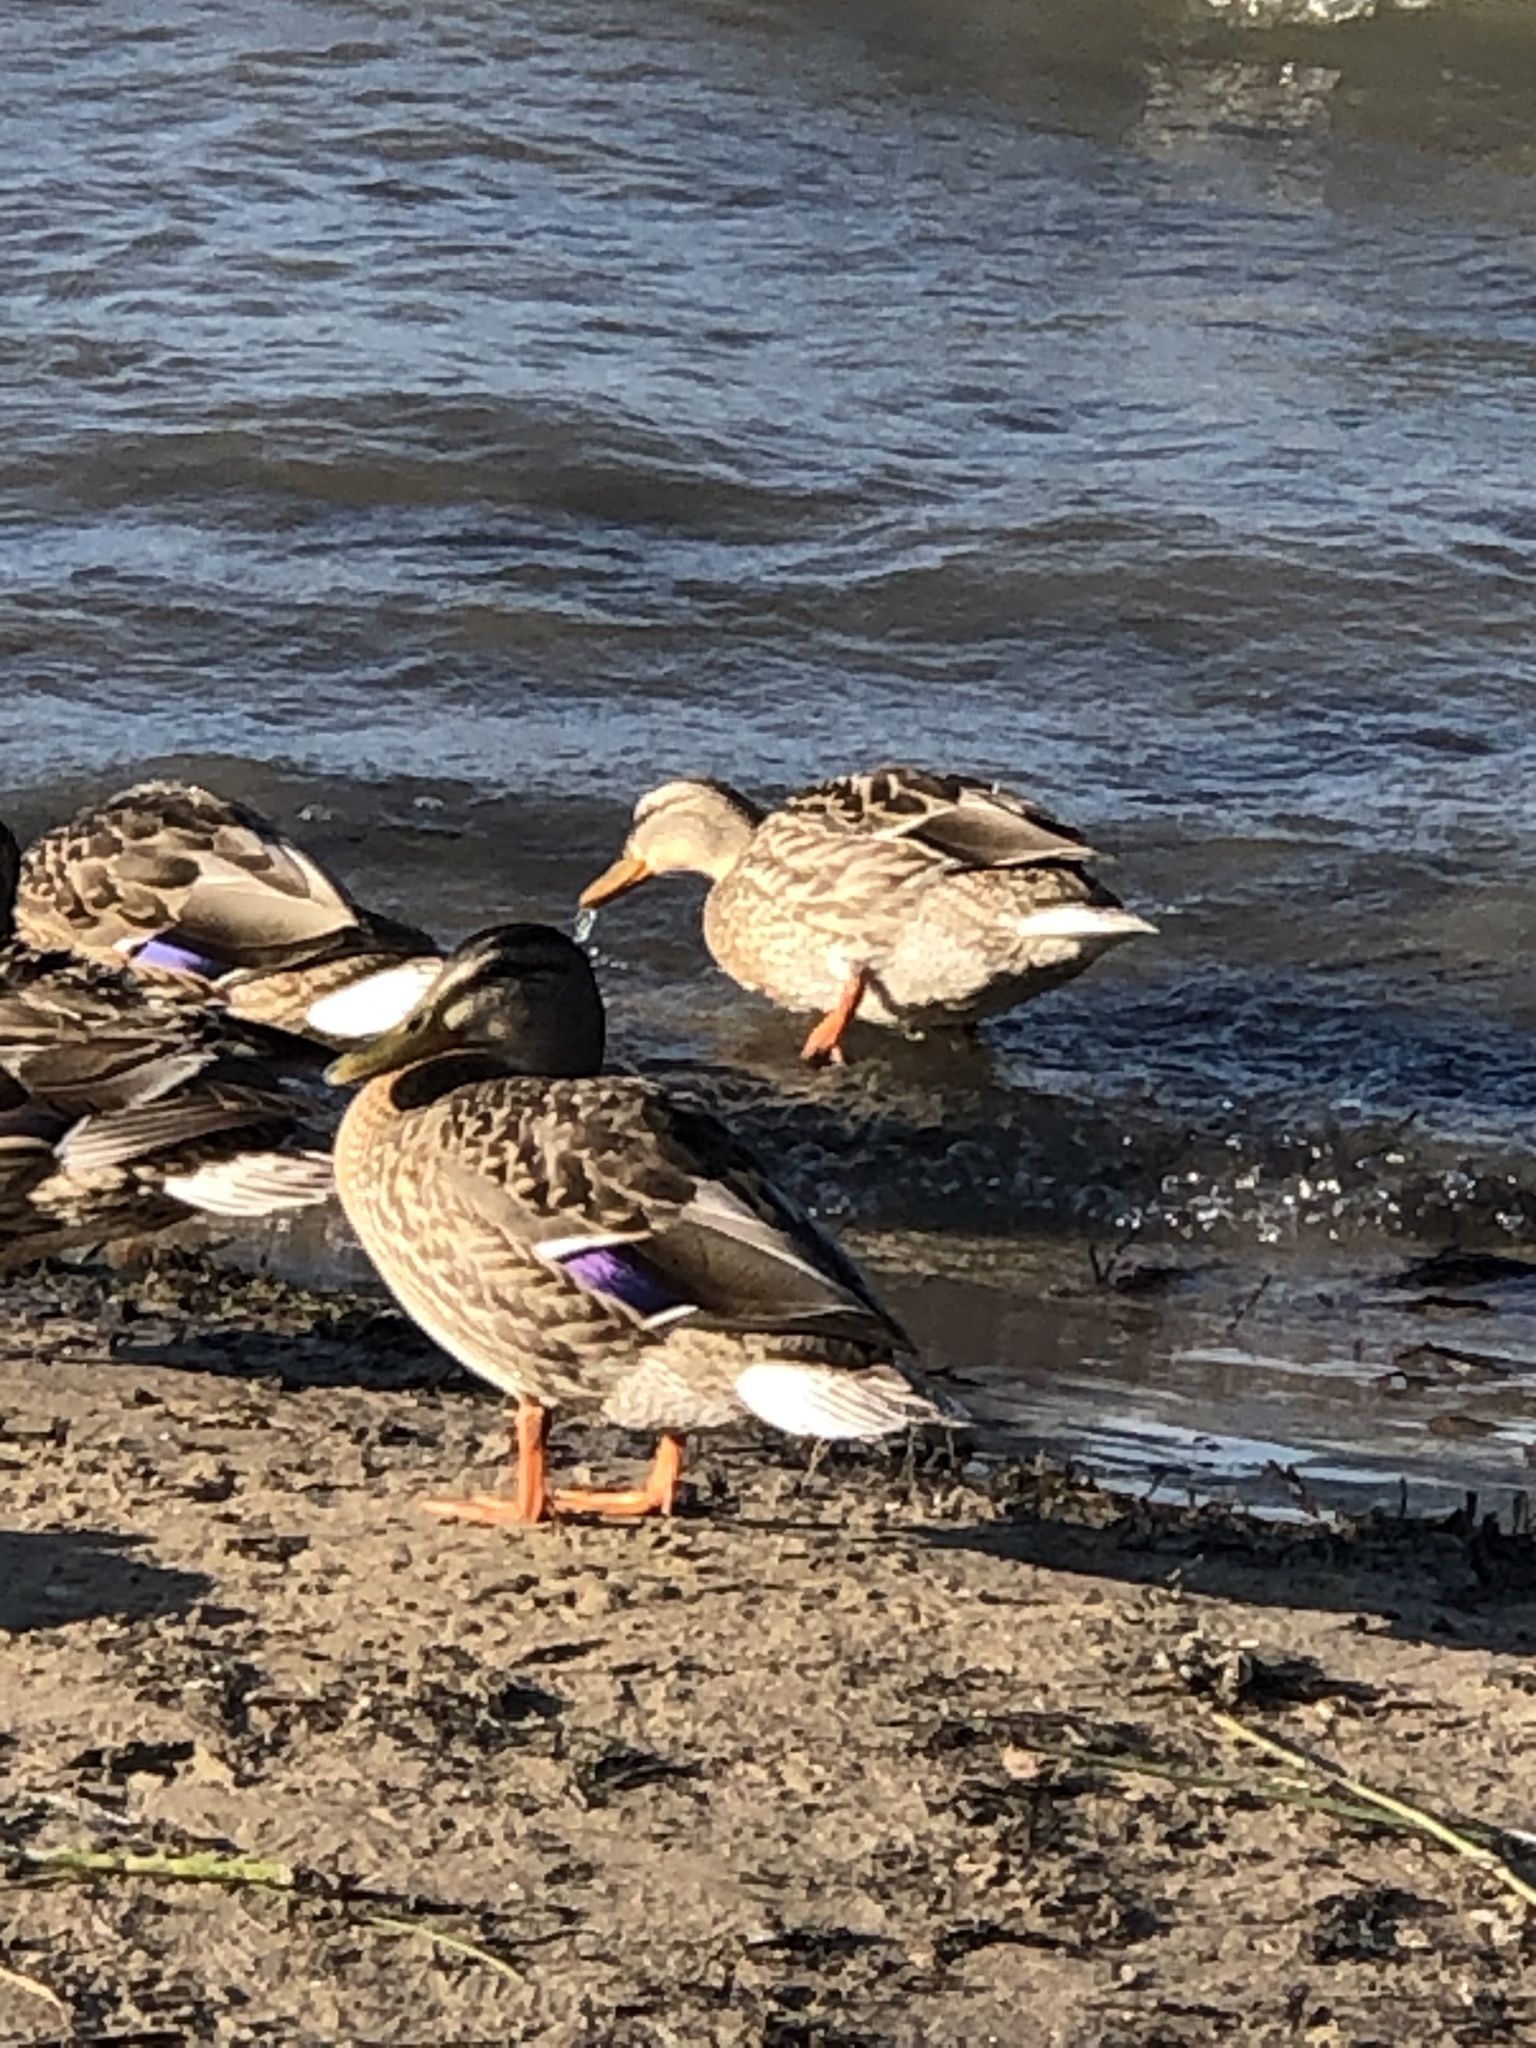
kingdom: Animalia
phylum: Chordata
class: Aves
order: Anseriformes
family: Anatidae
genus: Anas
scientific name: Anas platyrhynchos
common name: Mallard
